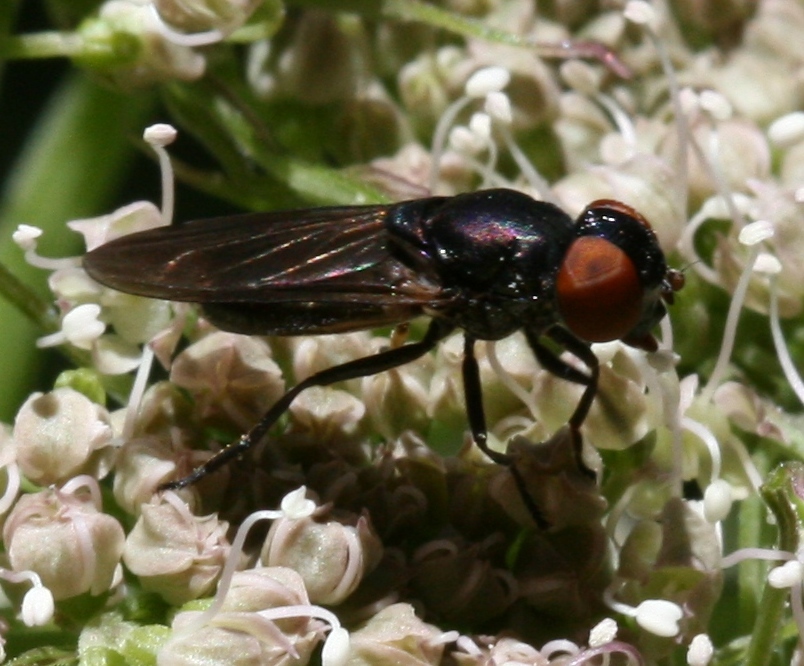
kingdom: Animalia
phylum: Arthropoda
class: Insecta
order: Diptera
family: Syrphidae
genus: Chrysogaster
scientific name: Chrysogaster solstitialis
